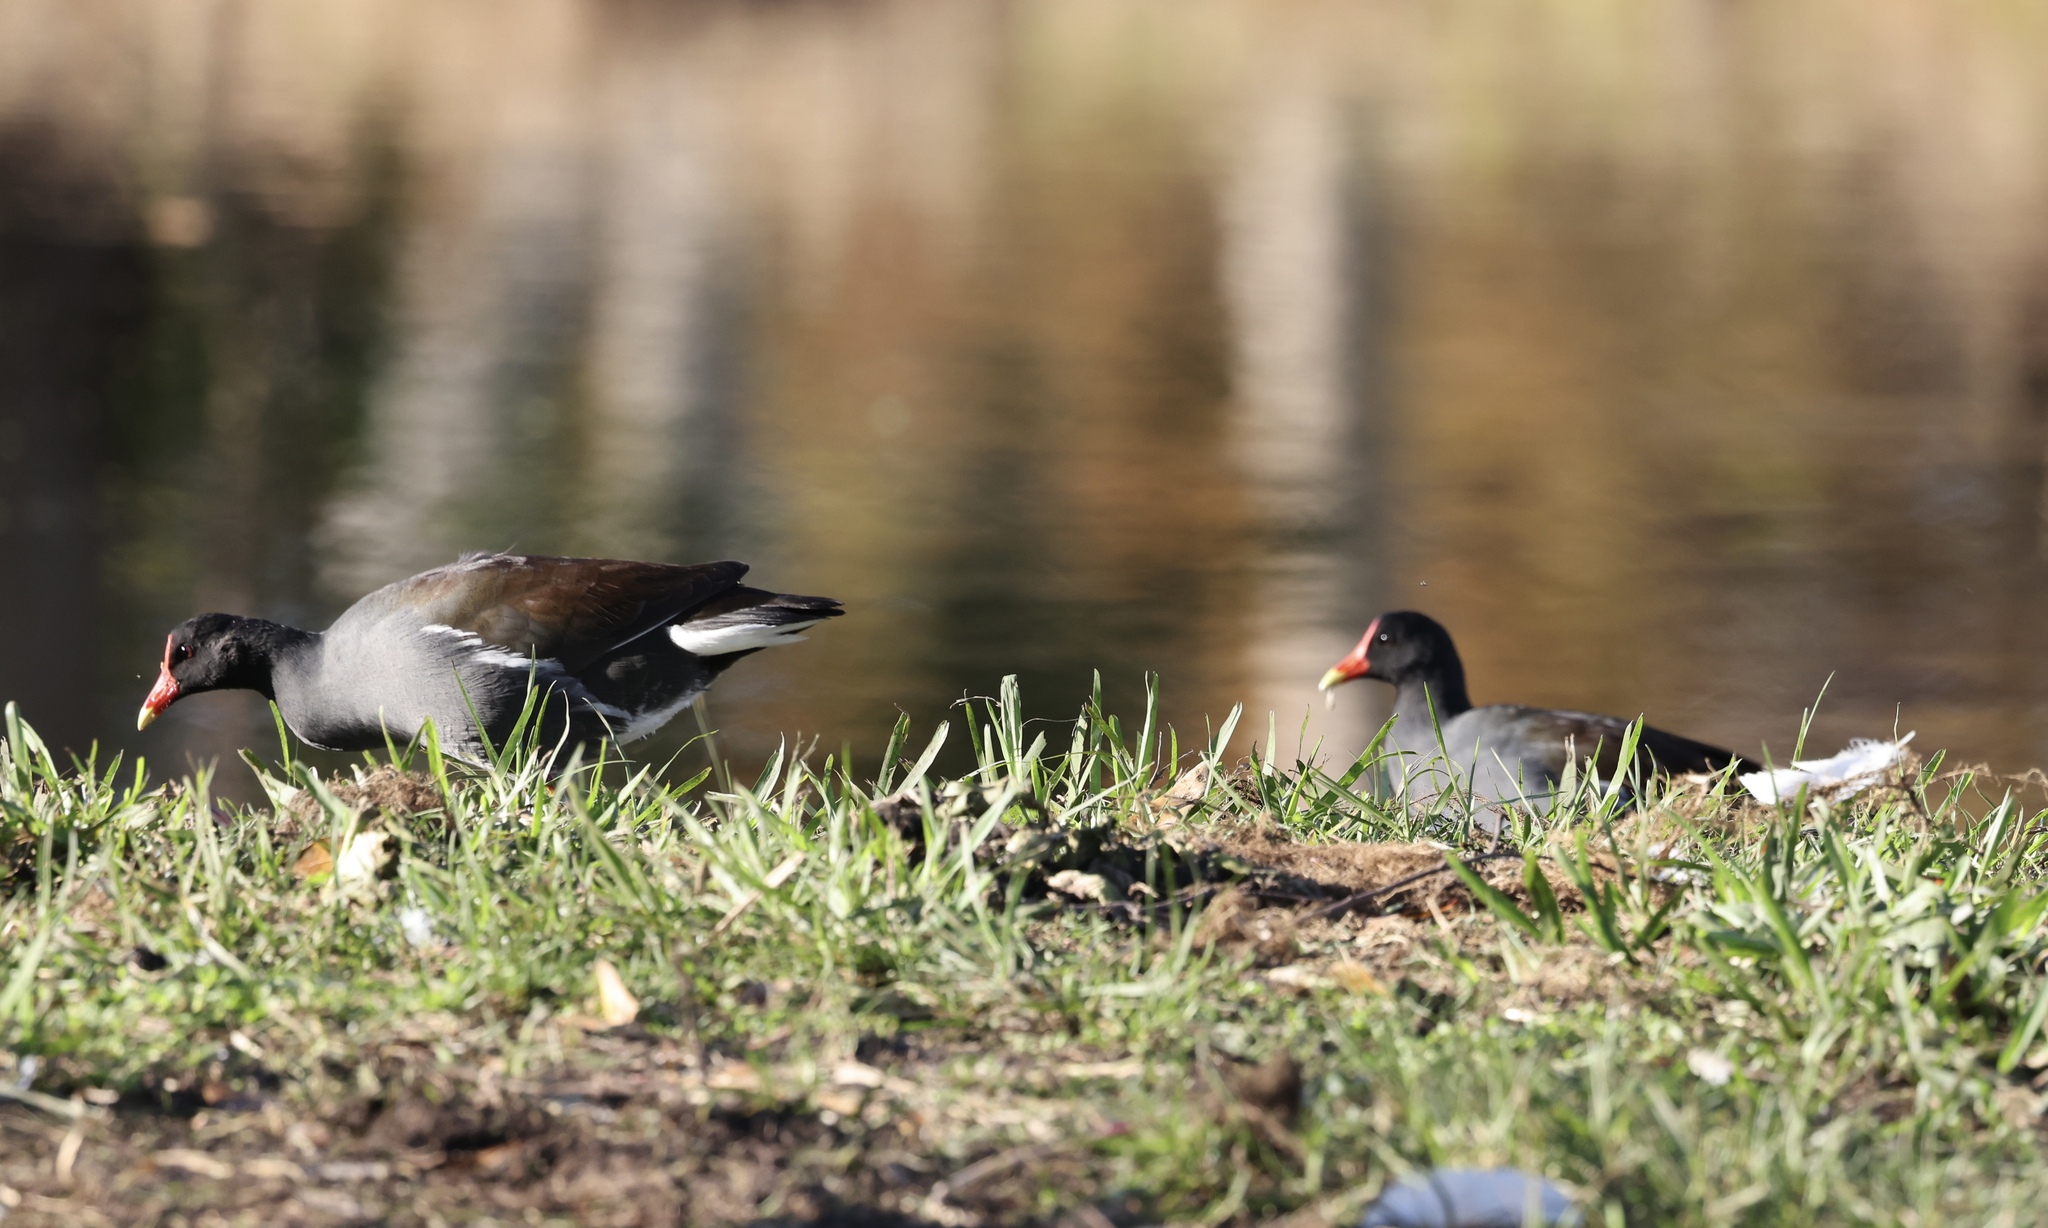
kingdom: Animalia
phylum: Chordata
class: Aves
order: Gruiformes
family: Rallidae
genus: Gallinula
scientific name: Gallinula chloropus
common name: Common moorhen
